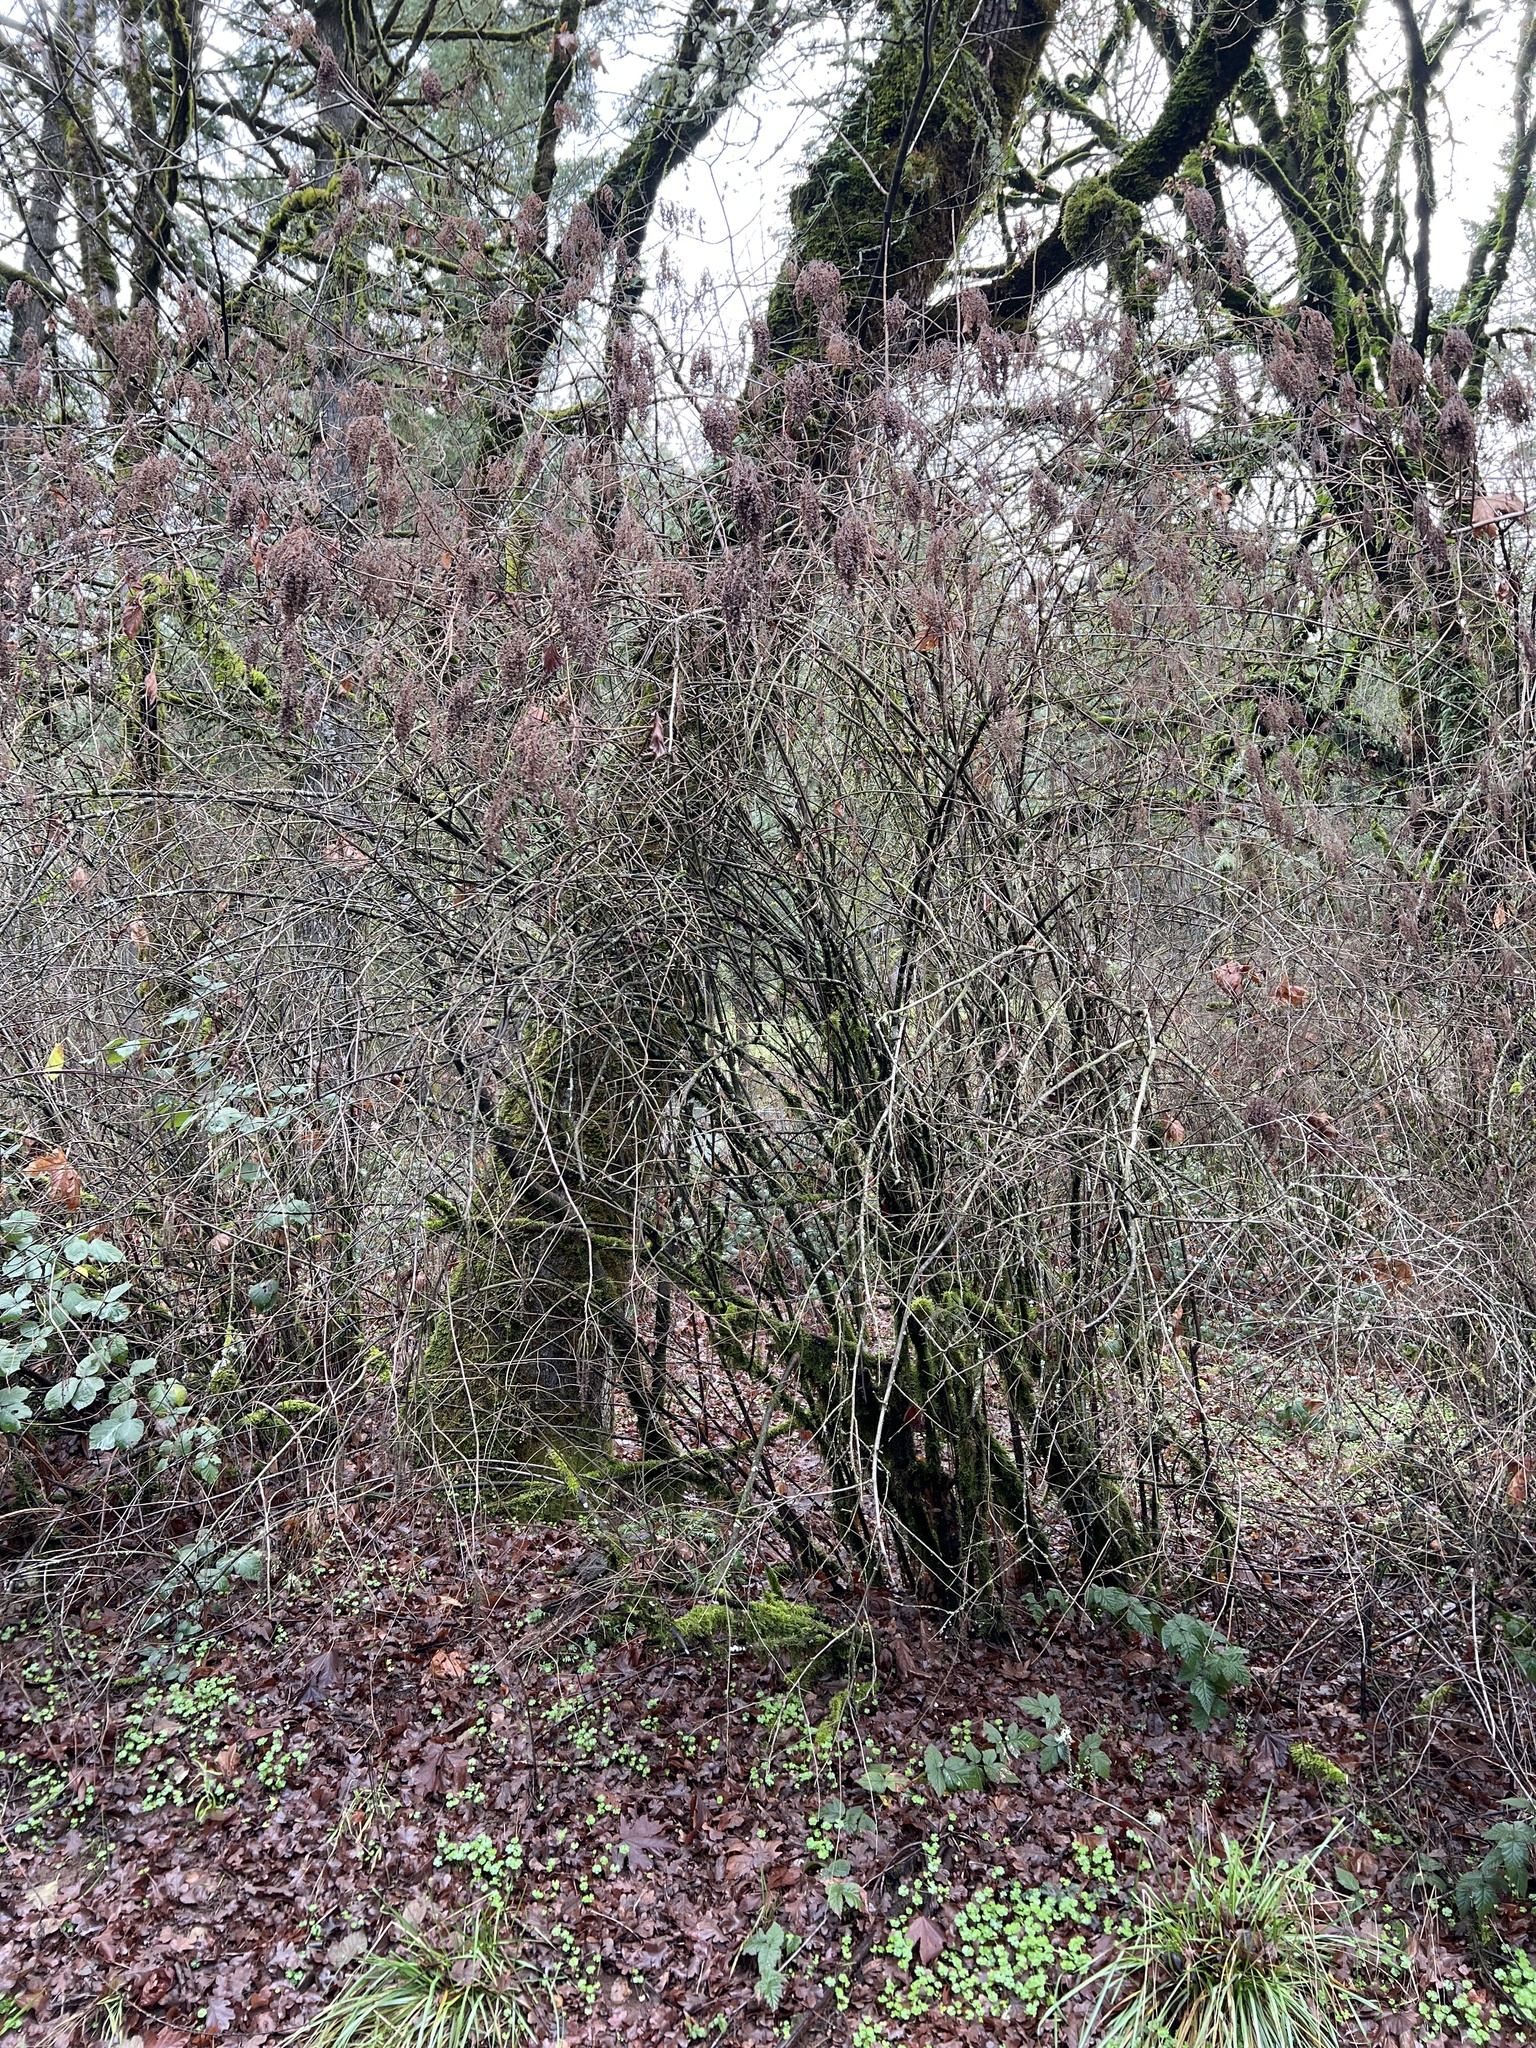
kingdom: Plantae
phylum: Tracheophyta
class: Magnoliopsida
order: Rosales
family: Rosaceae
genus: Holodiscus
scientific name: Holodiscus discolor
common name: Oceanspray
